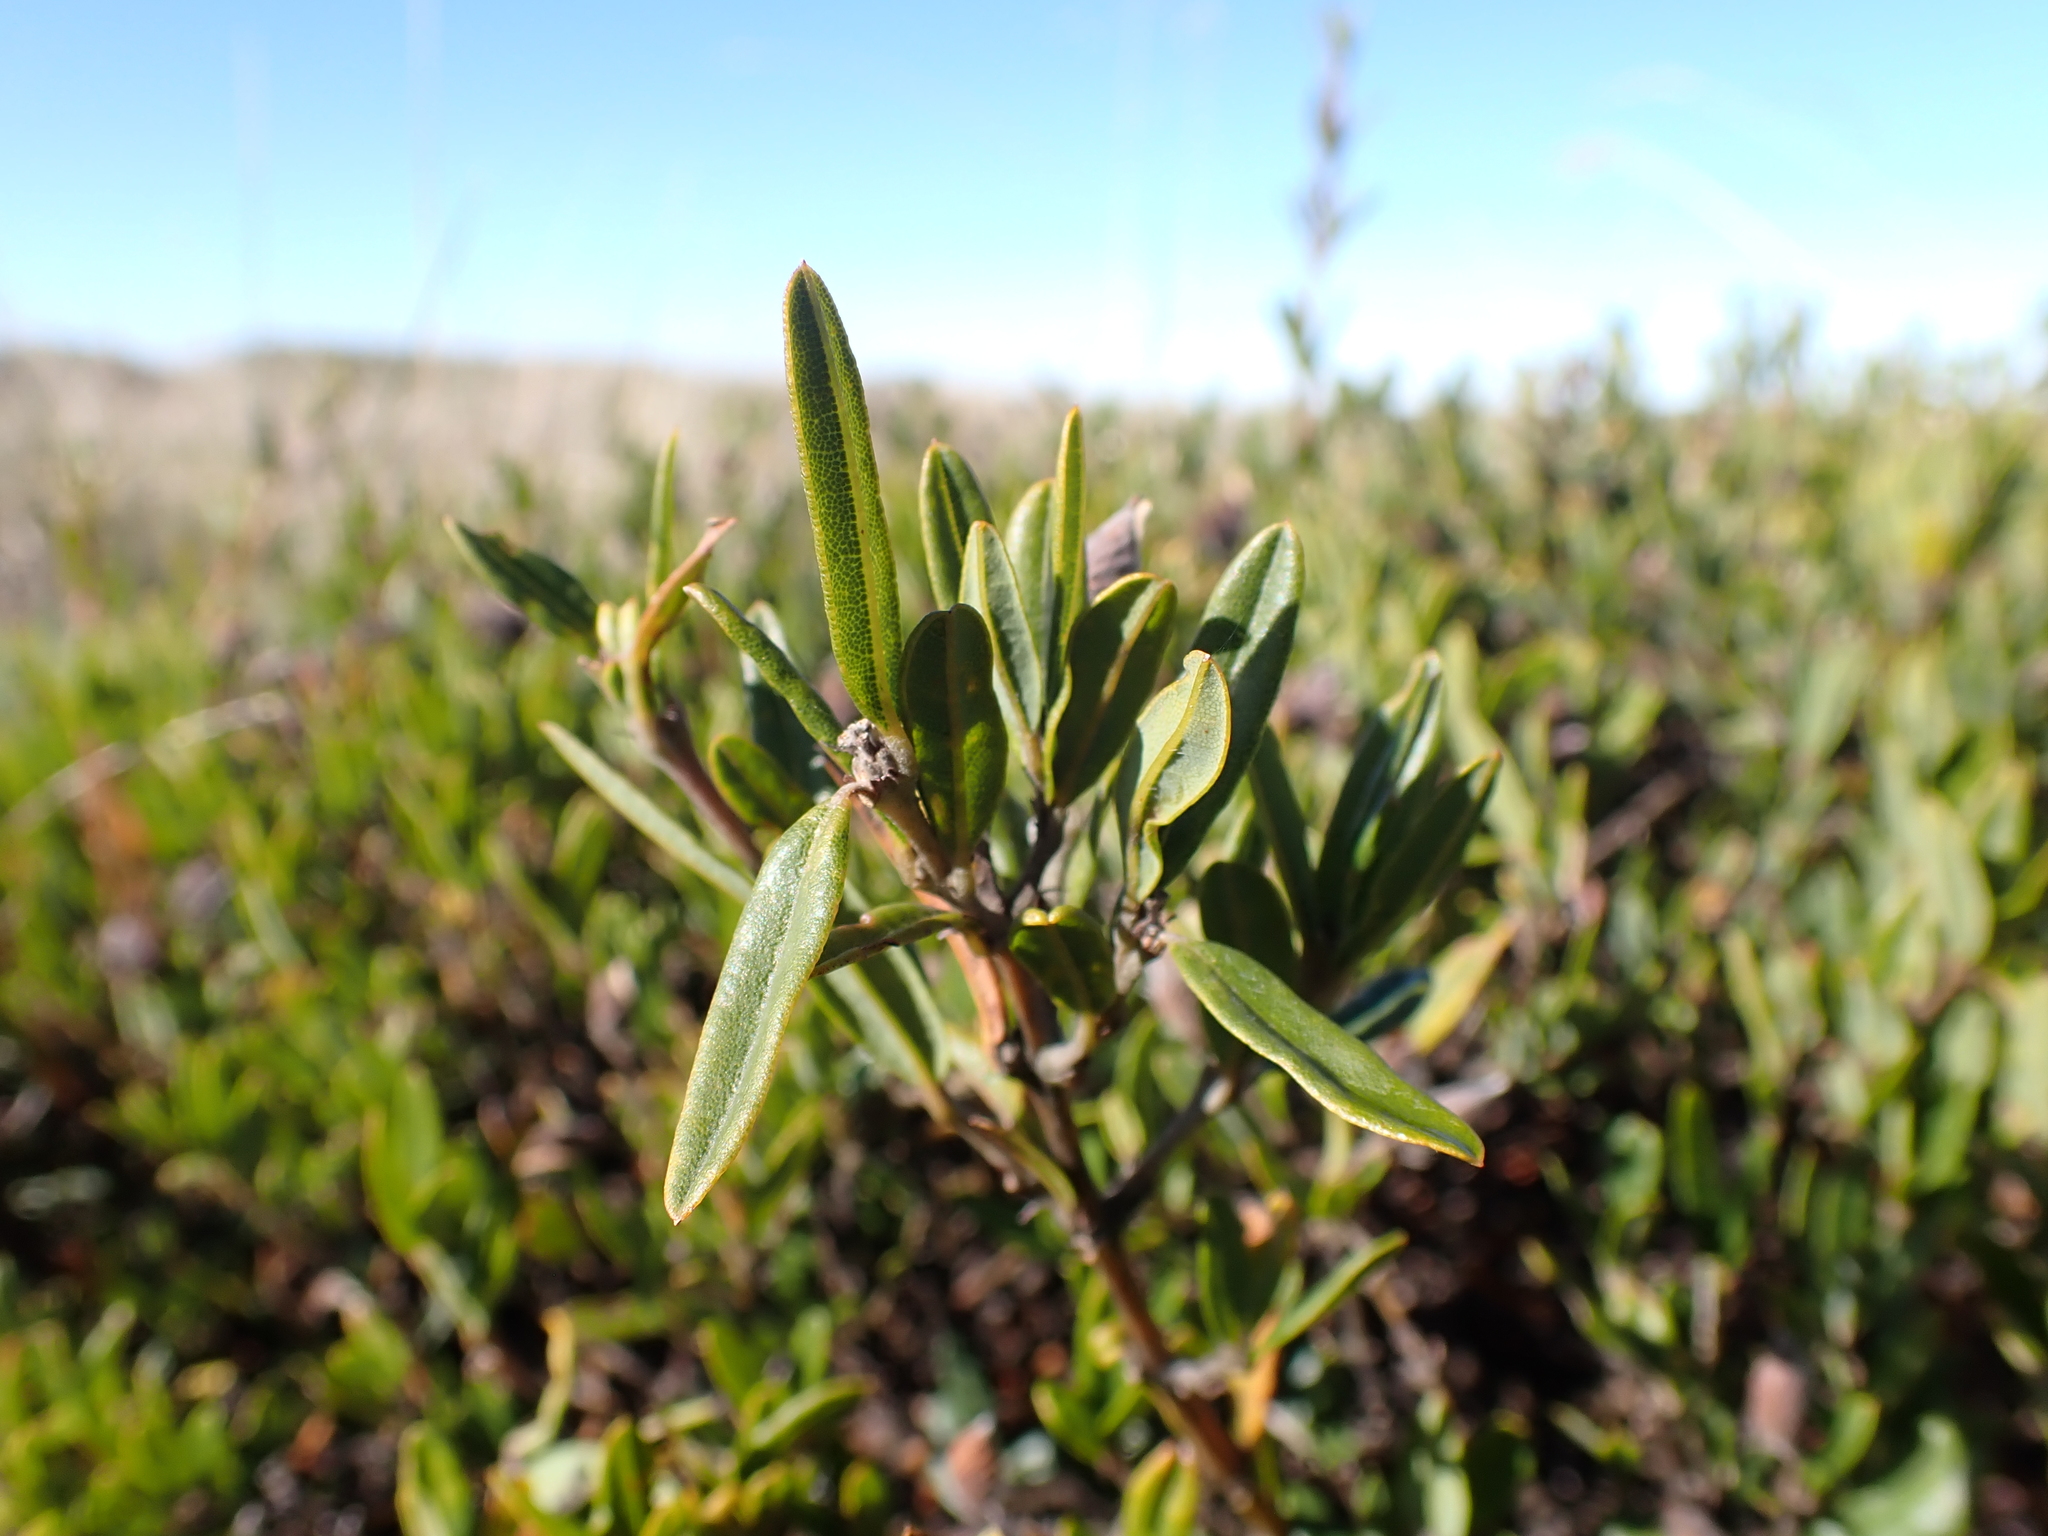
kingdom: Plantae
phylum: Tracheophyta
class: Magnoliopsida
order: Fabales
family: Fabaceae
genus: Podolobium
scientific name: Podolobium alpestre
